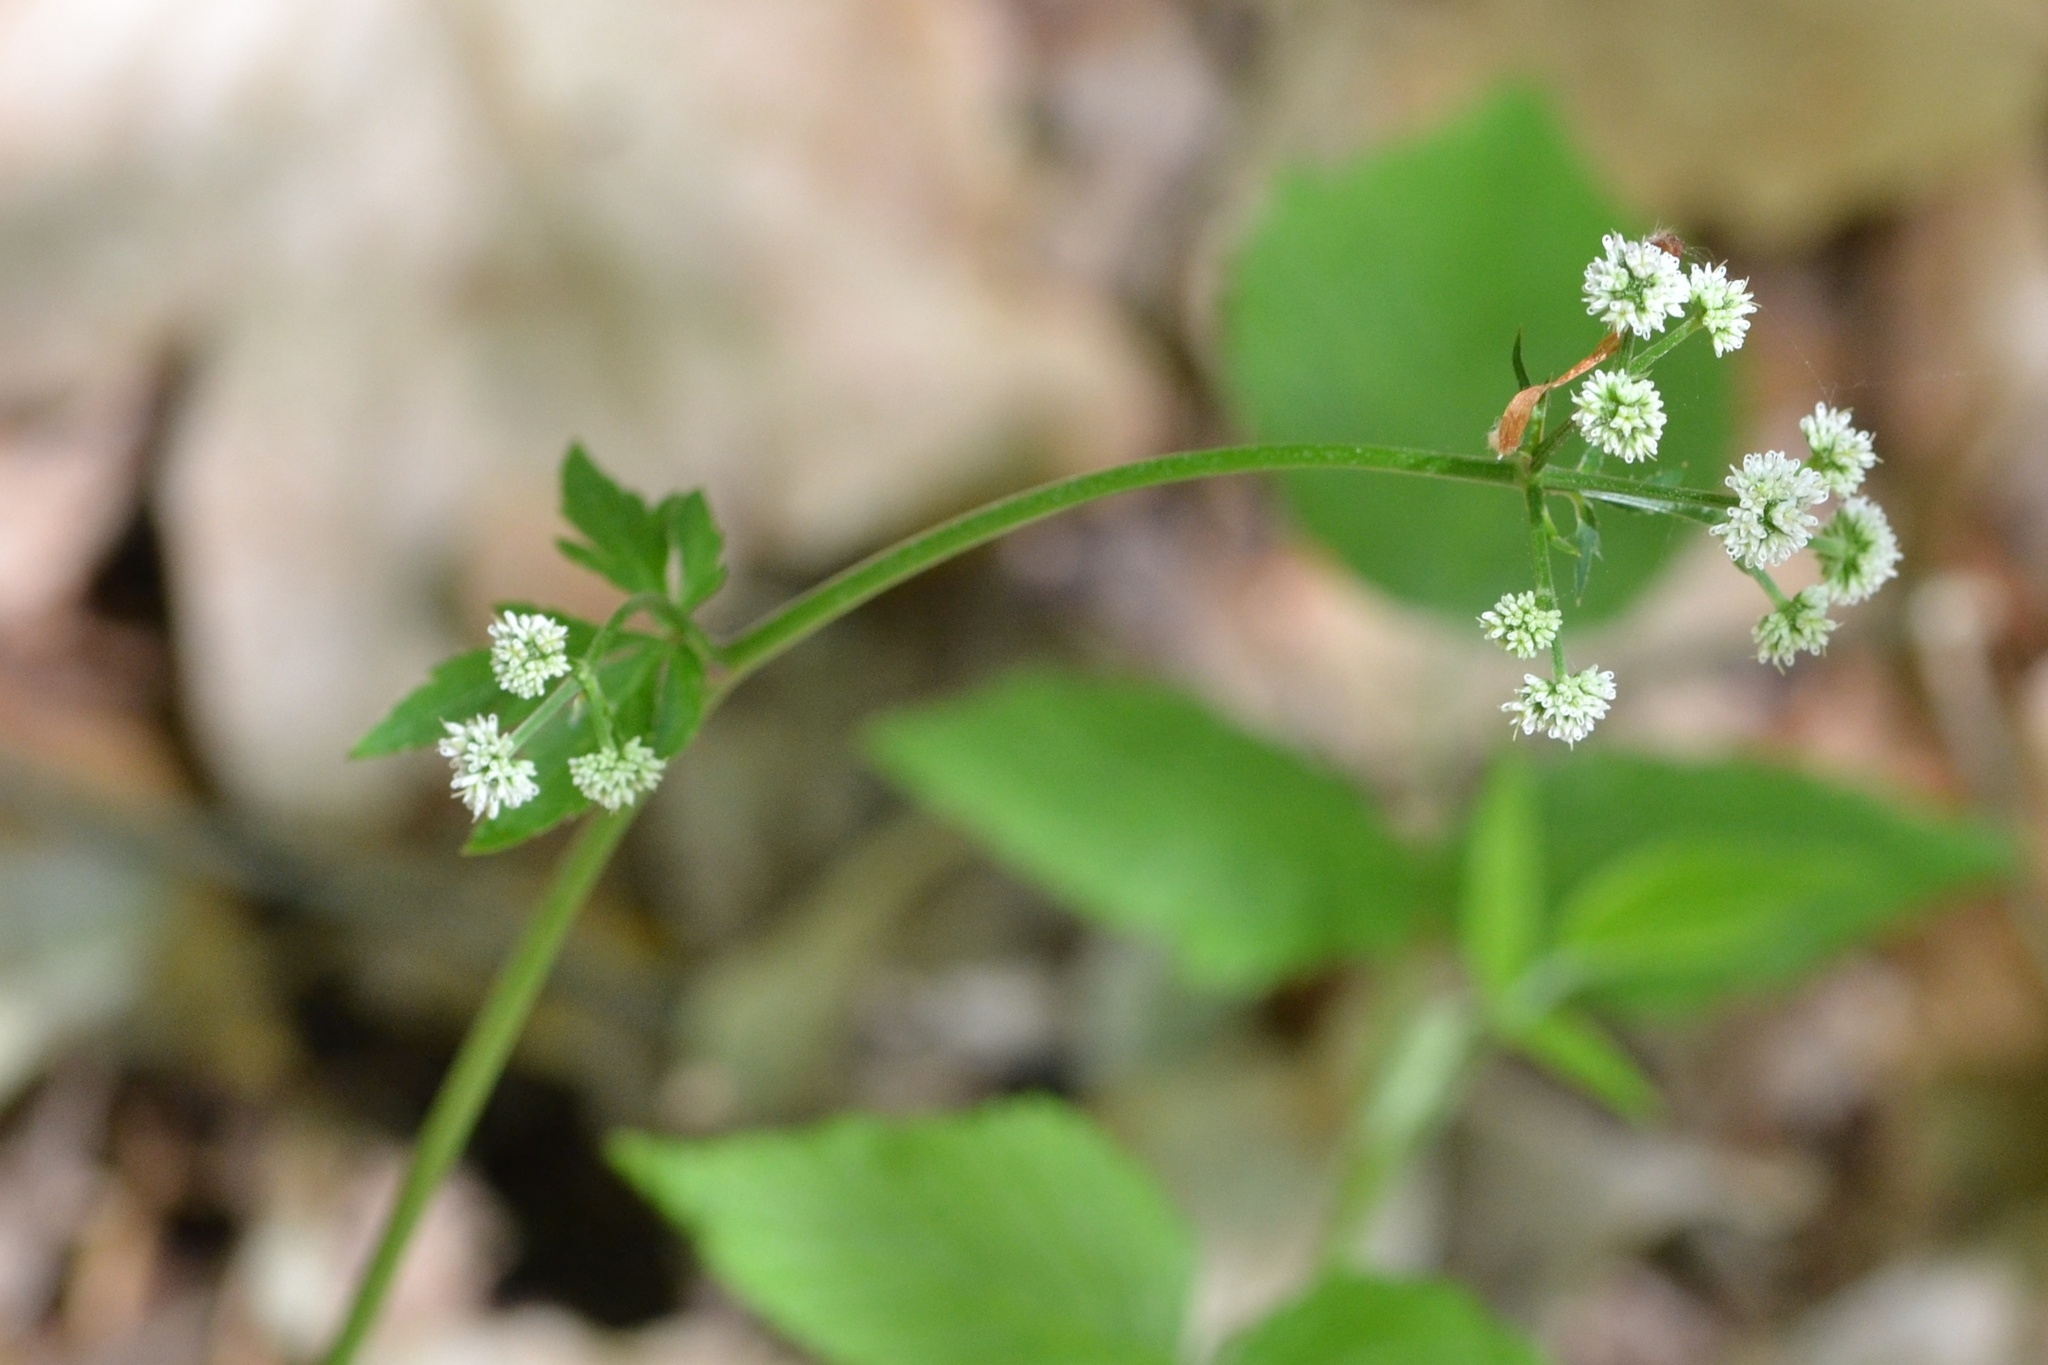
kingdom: Plantae
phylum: Tracheophyta
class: Magnoliopsida
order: Apiales
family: Apiaceae
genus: Sanicula
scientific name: Sanicula europaea
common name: Sanicle
